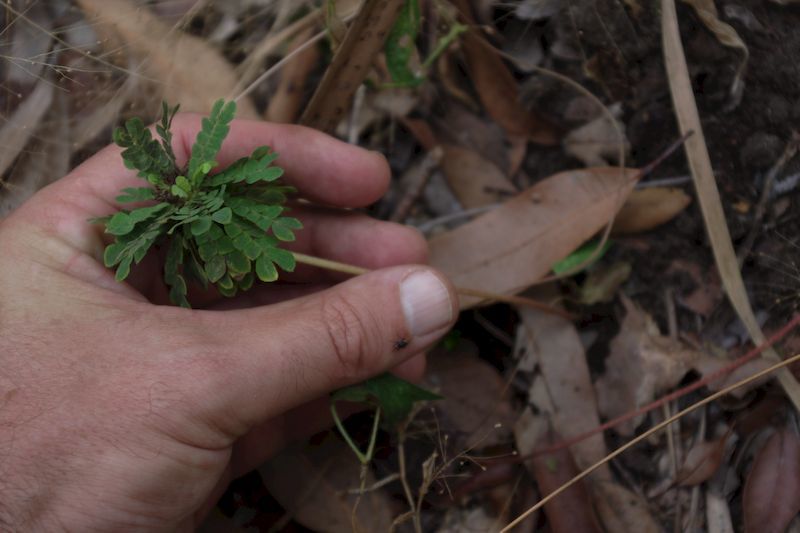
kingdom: Plantae
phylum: Tracheophyta
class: Magnoliopsida
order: Oxalidales
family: Oxalidaceae
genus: Biophytum
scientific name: Biophytum umbraculum
